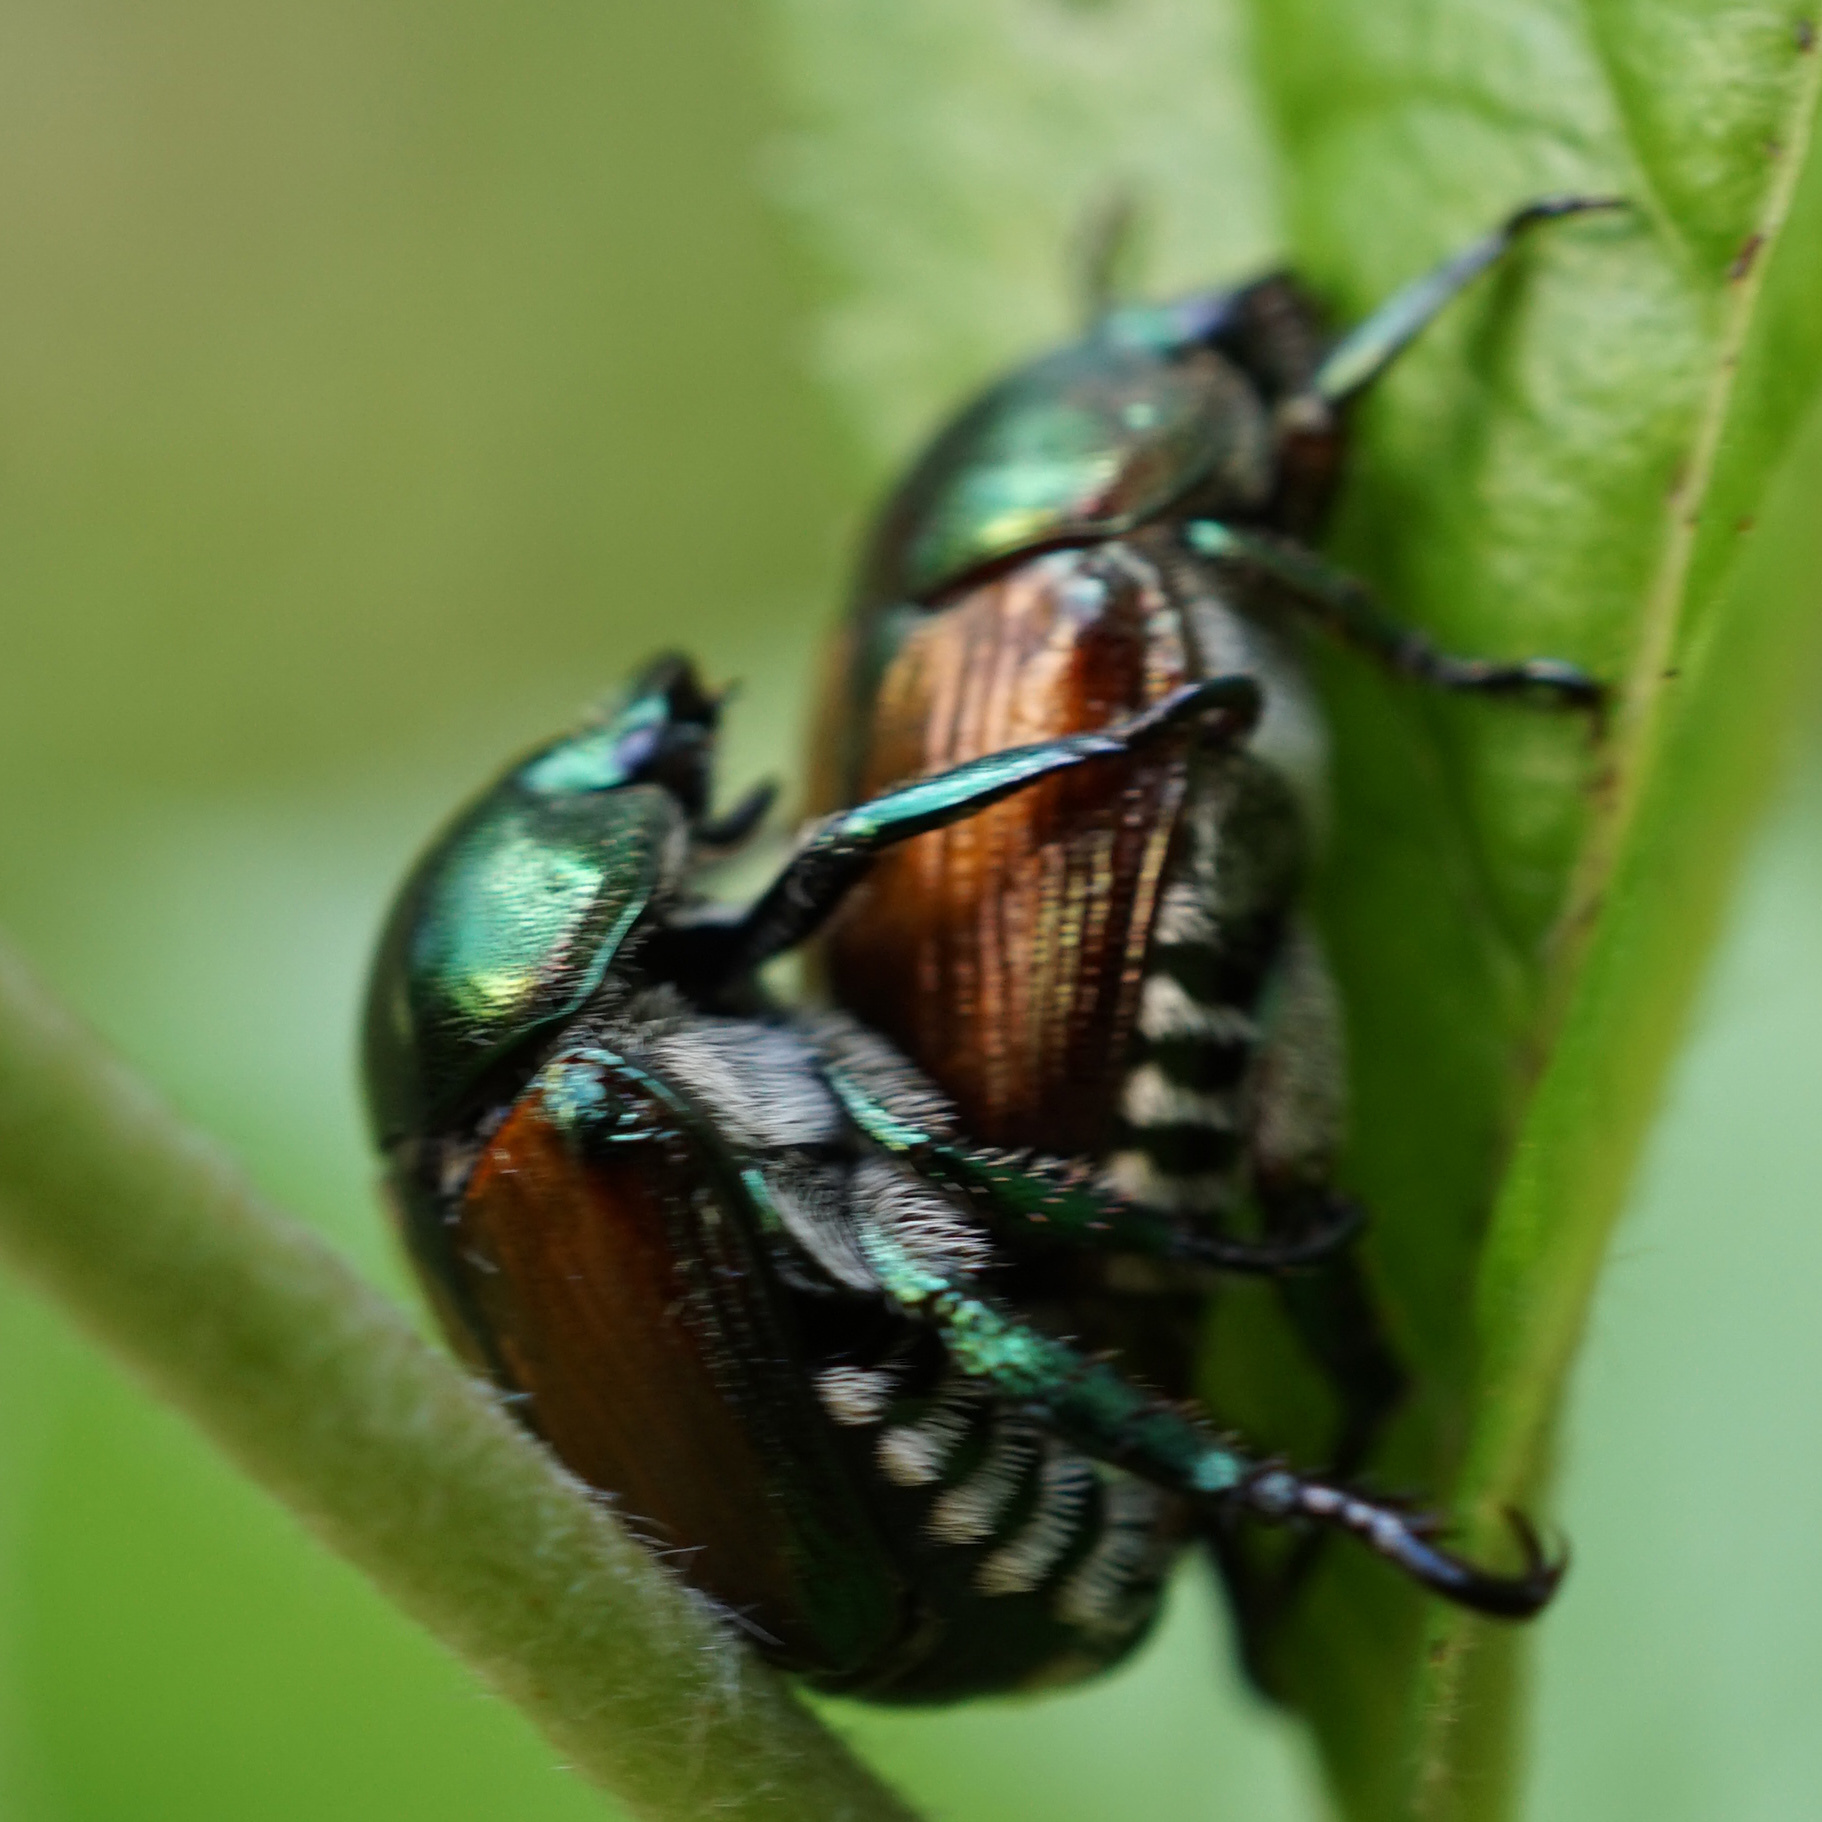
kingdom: Animalia
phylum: Arthropoda
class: Insecta
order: Coleoptera
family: Scarabaeidae
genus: Popillia
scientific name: Popillia japonica
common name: Japanese beetle
